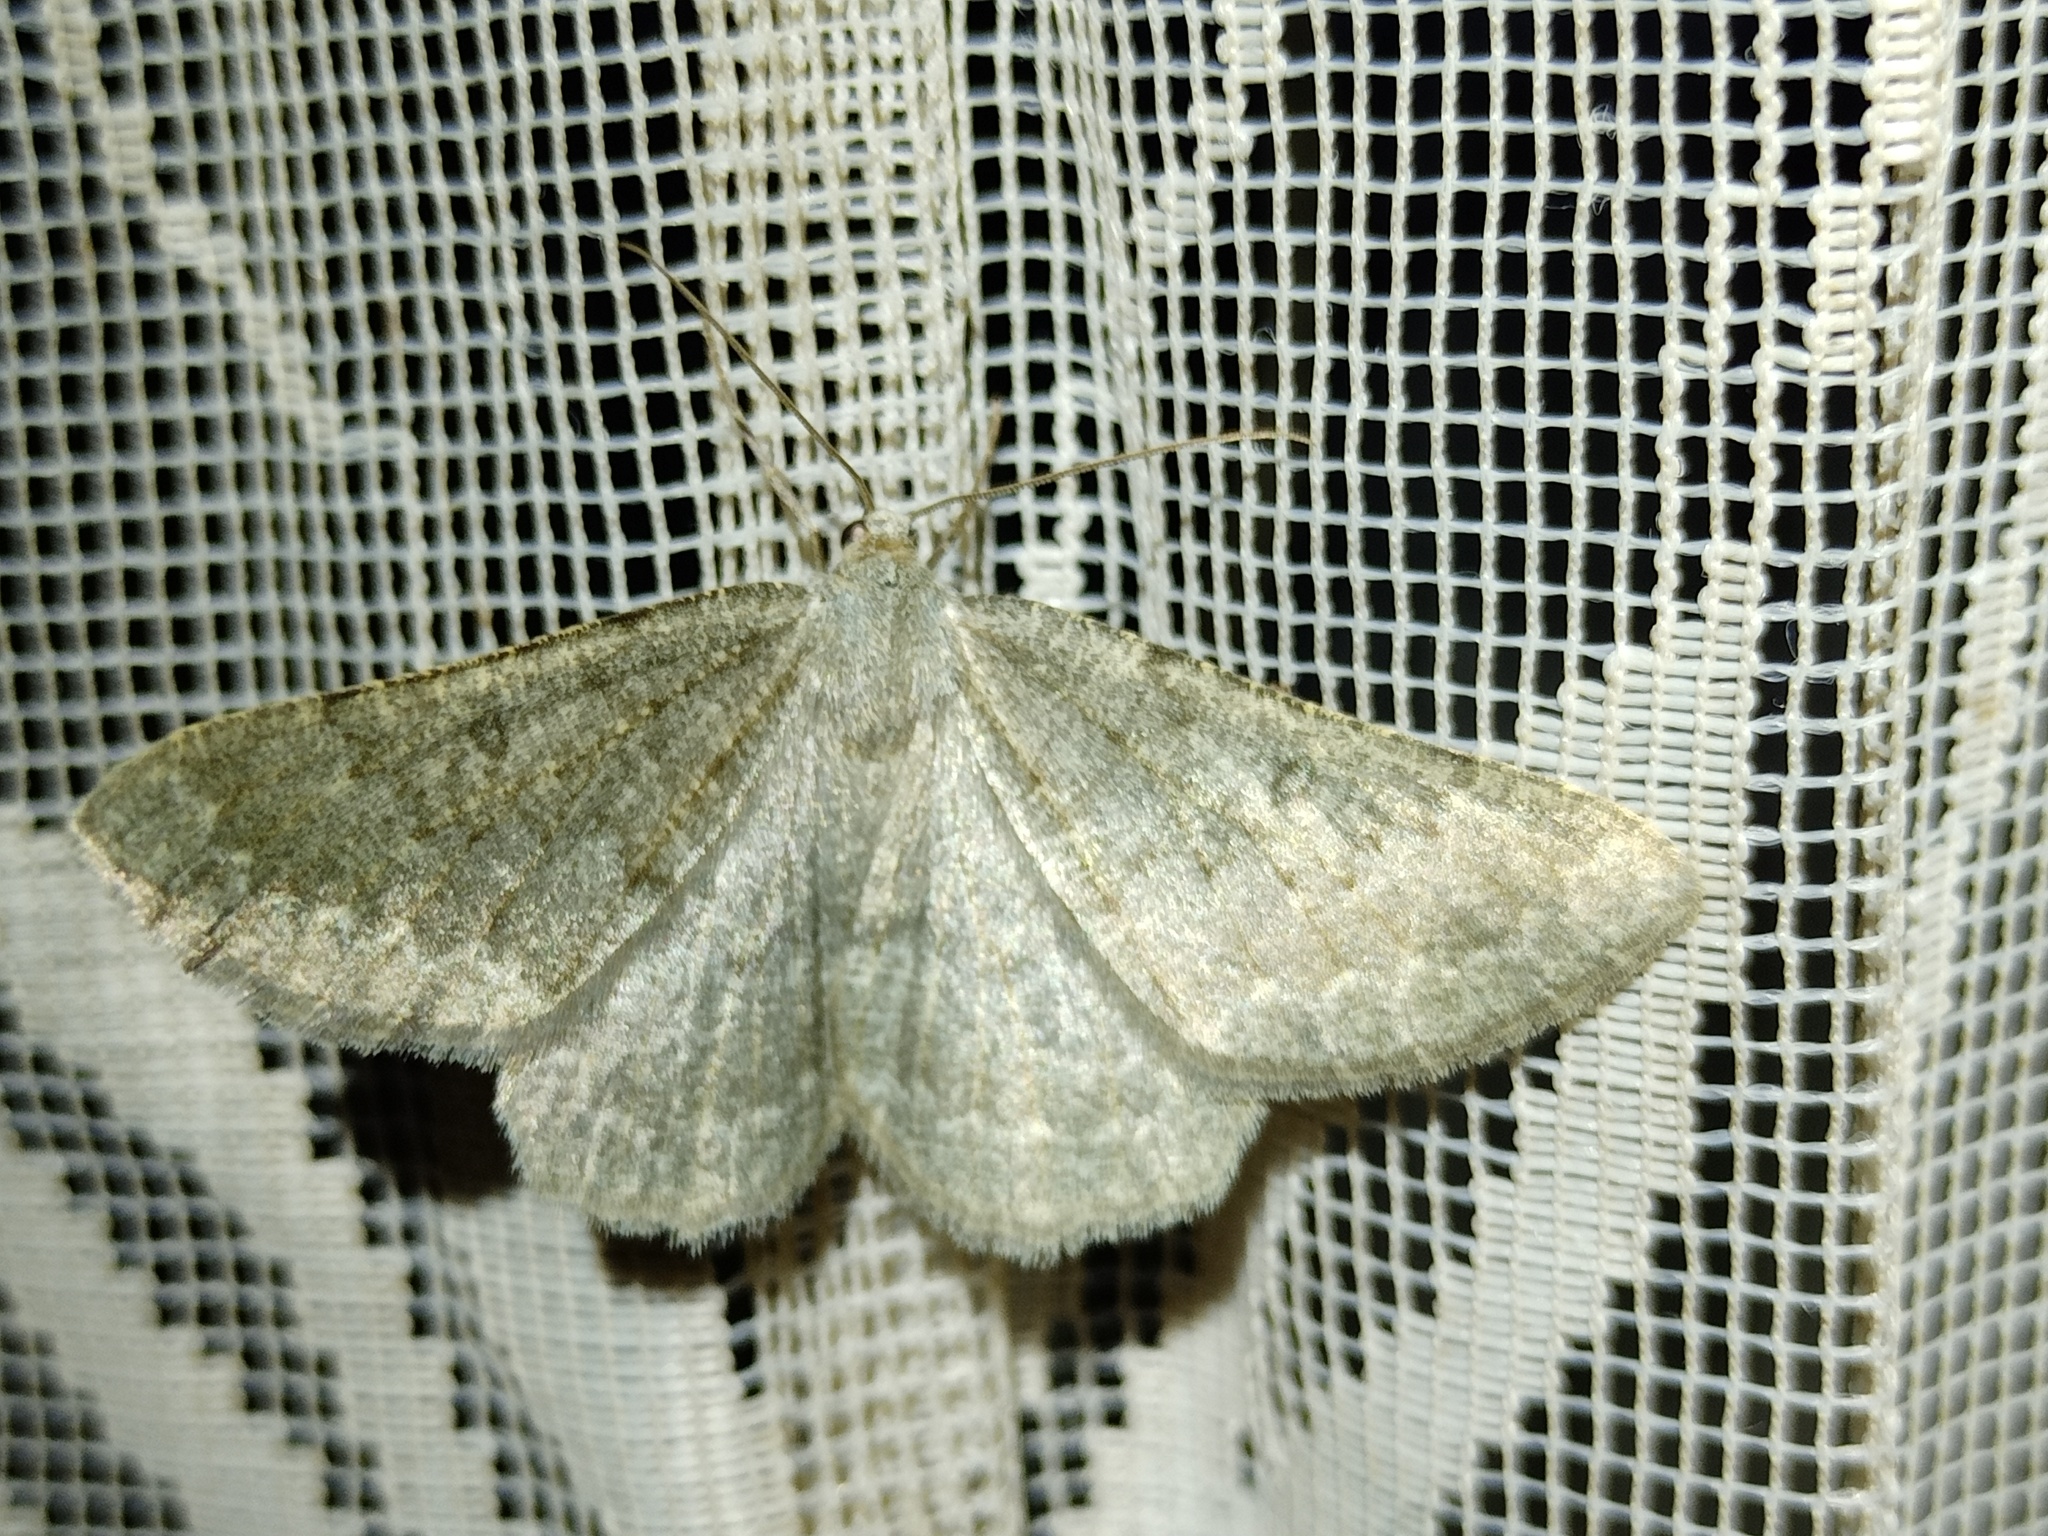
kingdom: Animalia
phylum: Arthropoda
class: Insecta
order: Lepidoptera
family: Geometridae
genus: Gnophos
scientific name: Gnophos obfuscata
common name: Scottish annulet
